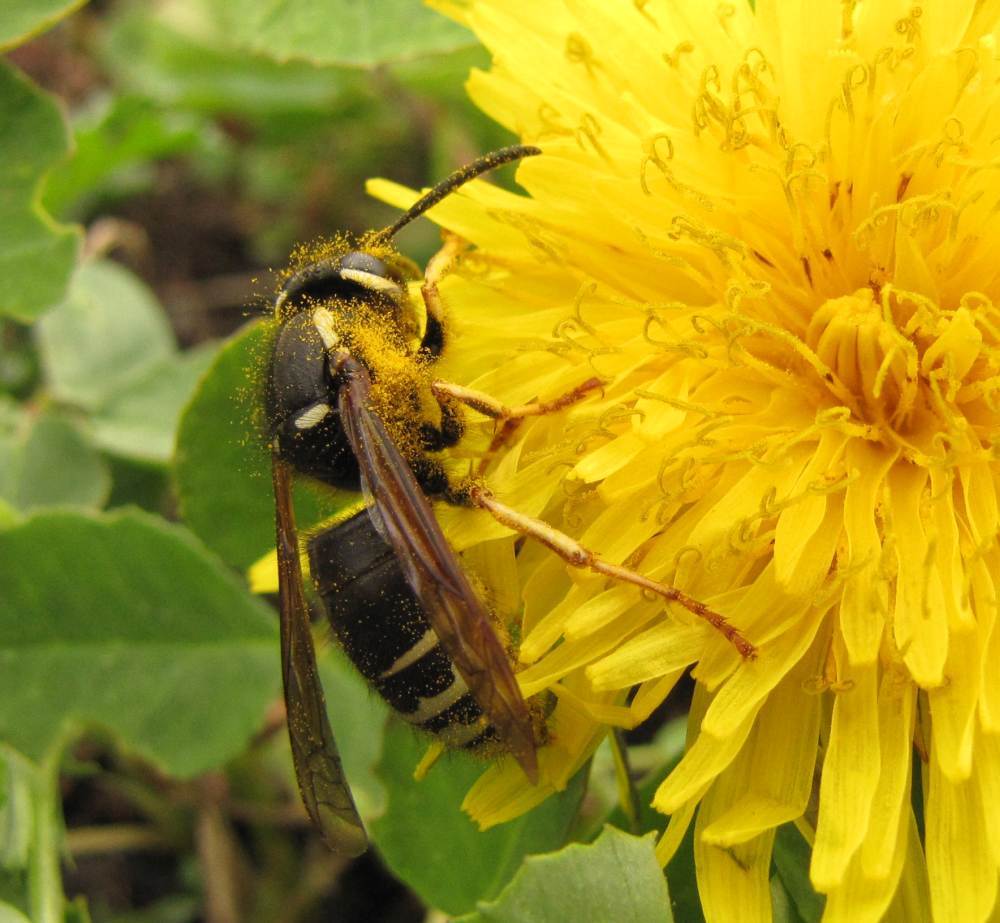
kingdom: Animalia
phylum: Arthropoda
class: Insecta
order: Hymenoptera
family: Vespidae
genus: Vespula
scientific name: Vespula consobrina
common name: Blackjacket
